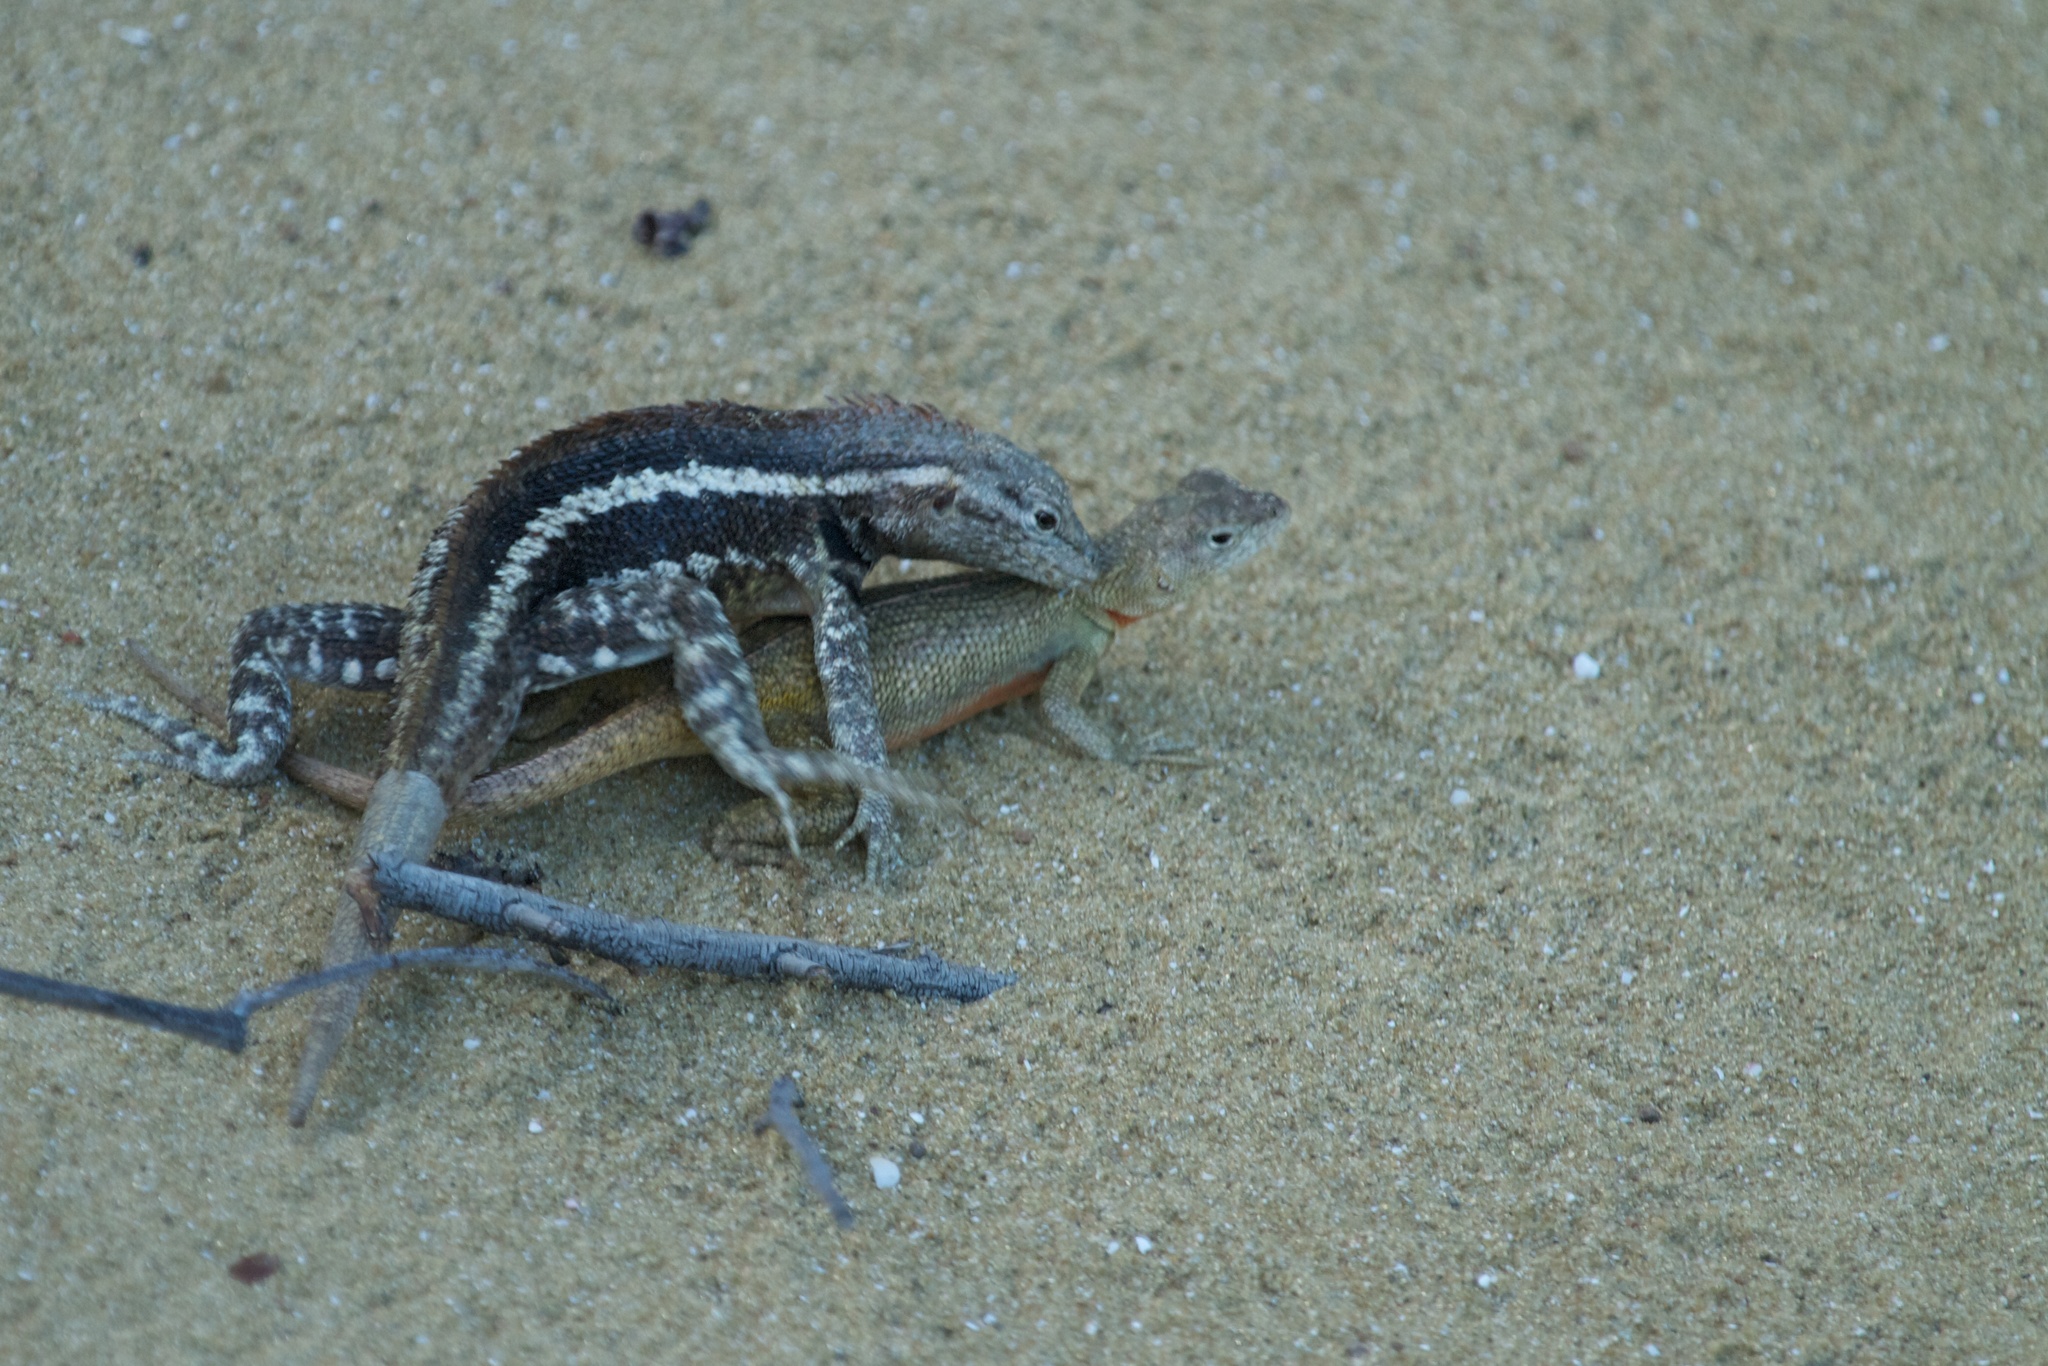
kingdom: Animalia
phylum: Chordata
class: Squamata
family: Tropiduridae
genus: Microlophus
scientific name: Microlophus bivittatus
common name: San cristobal lava lizard
